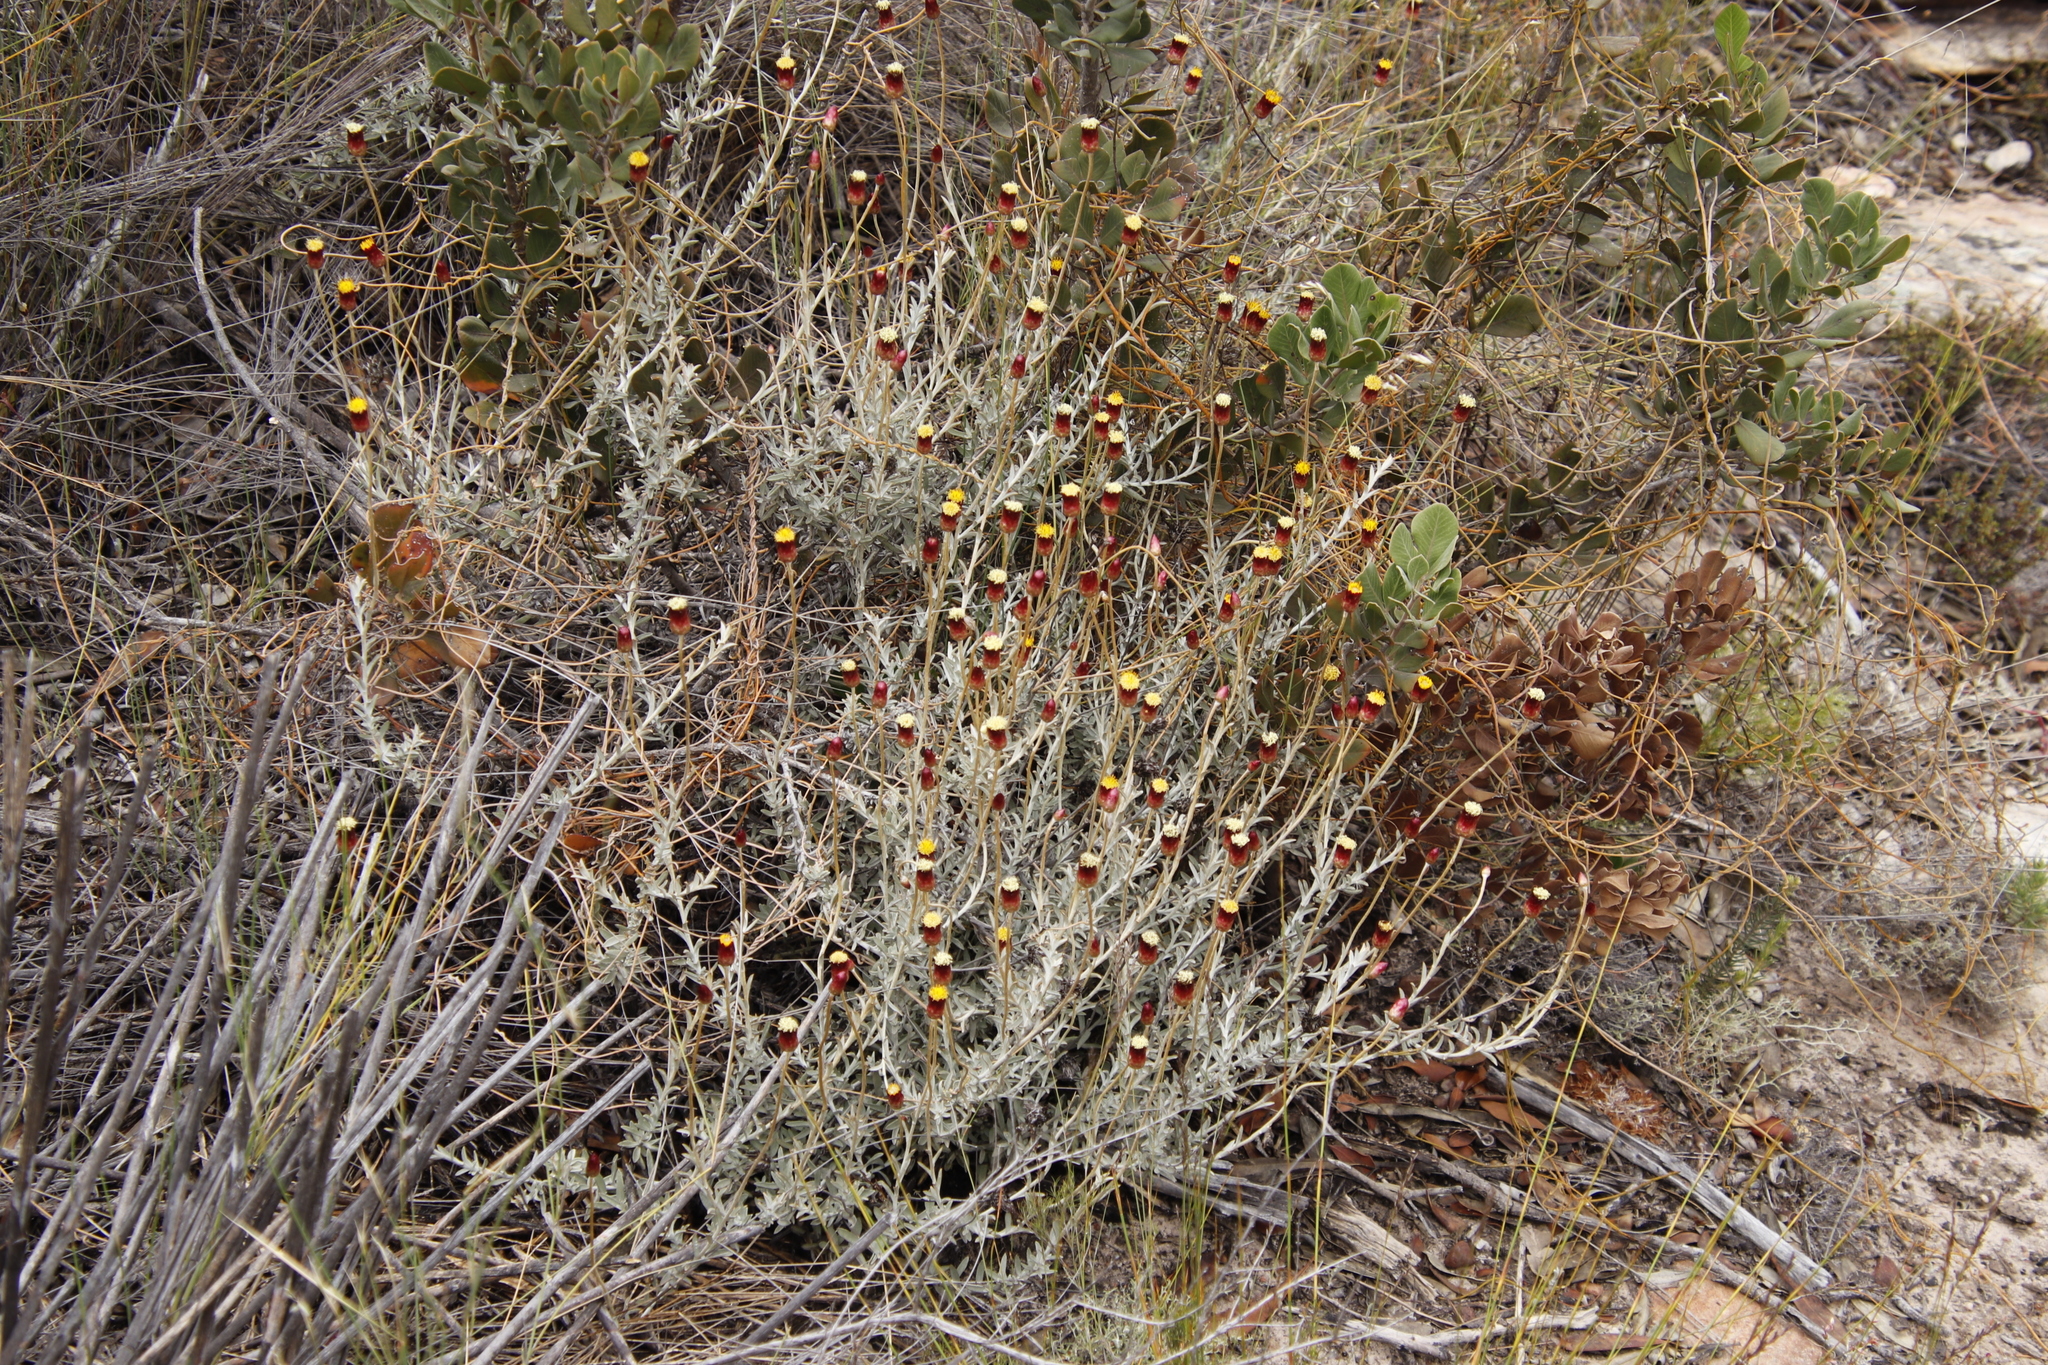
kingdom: Plantae
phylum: Tracheophyta
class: Magnoliopsida
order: Asterales
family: Asteraceae
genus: Achyranthemum
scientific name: Achyranthemum affine
